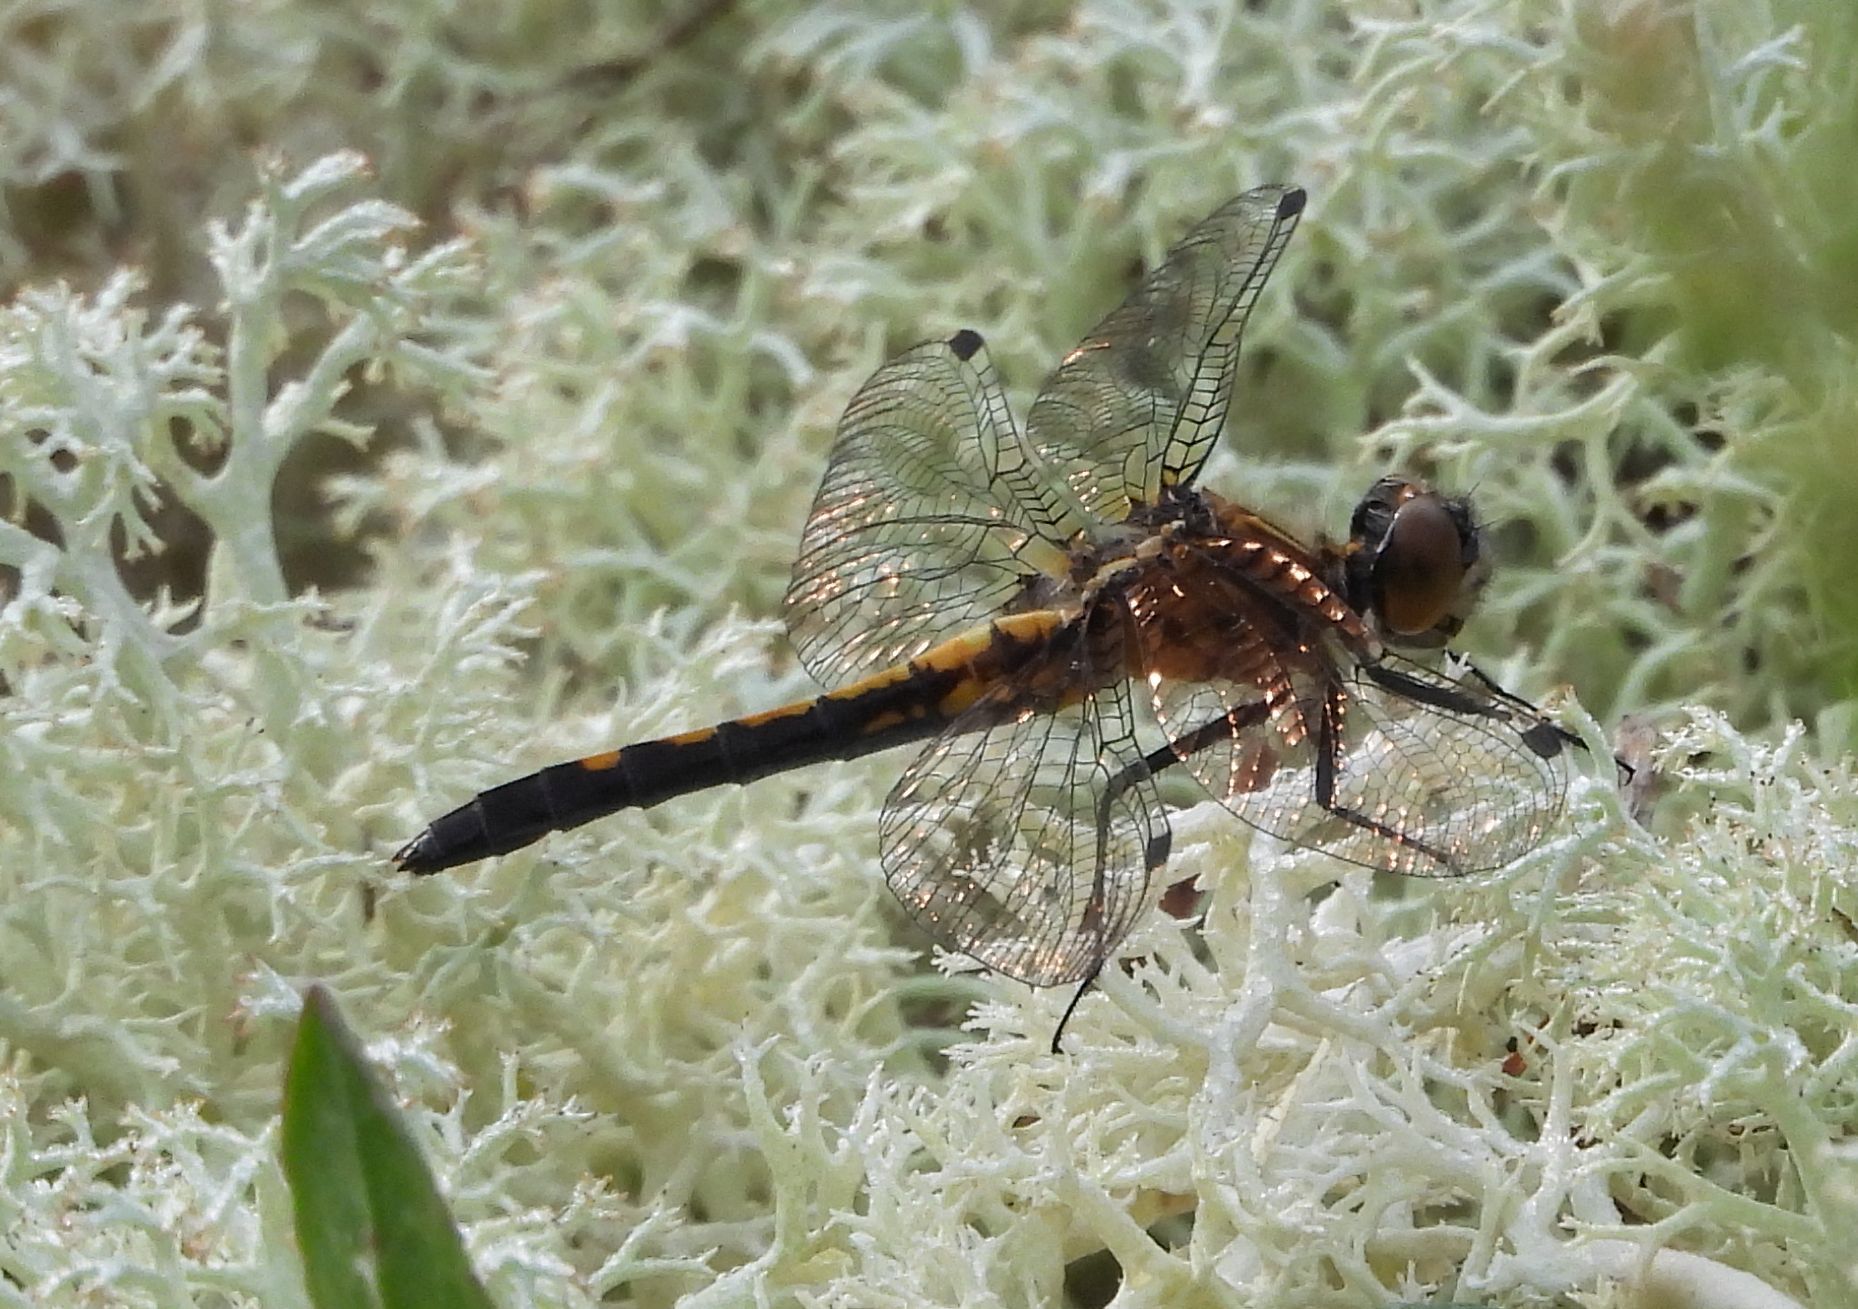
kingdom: Animalia
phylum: Arthropoda
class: Insecta
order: Odonata
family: Libellulidae
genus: Leucorrhinia
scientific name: Leucorrhinia intacta
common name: Dot-tailed whiteface
